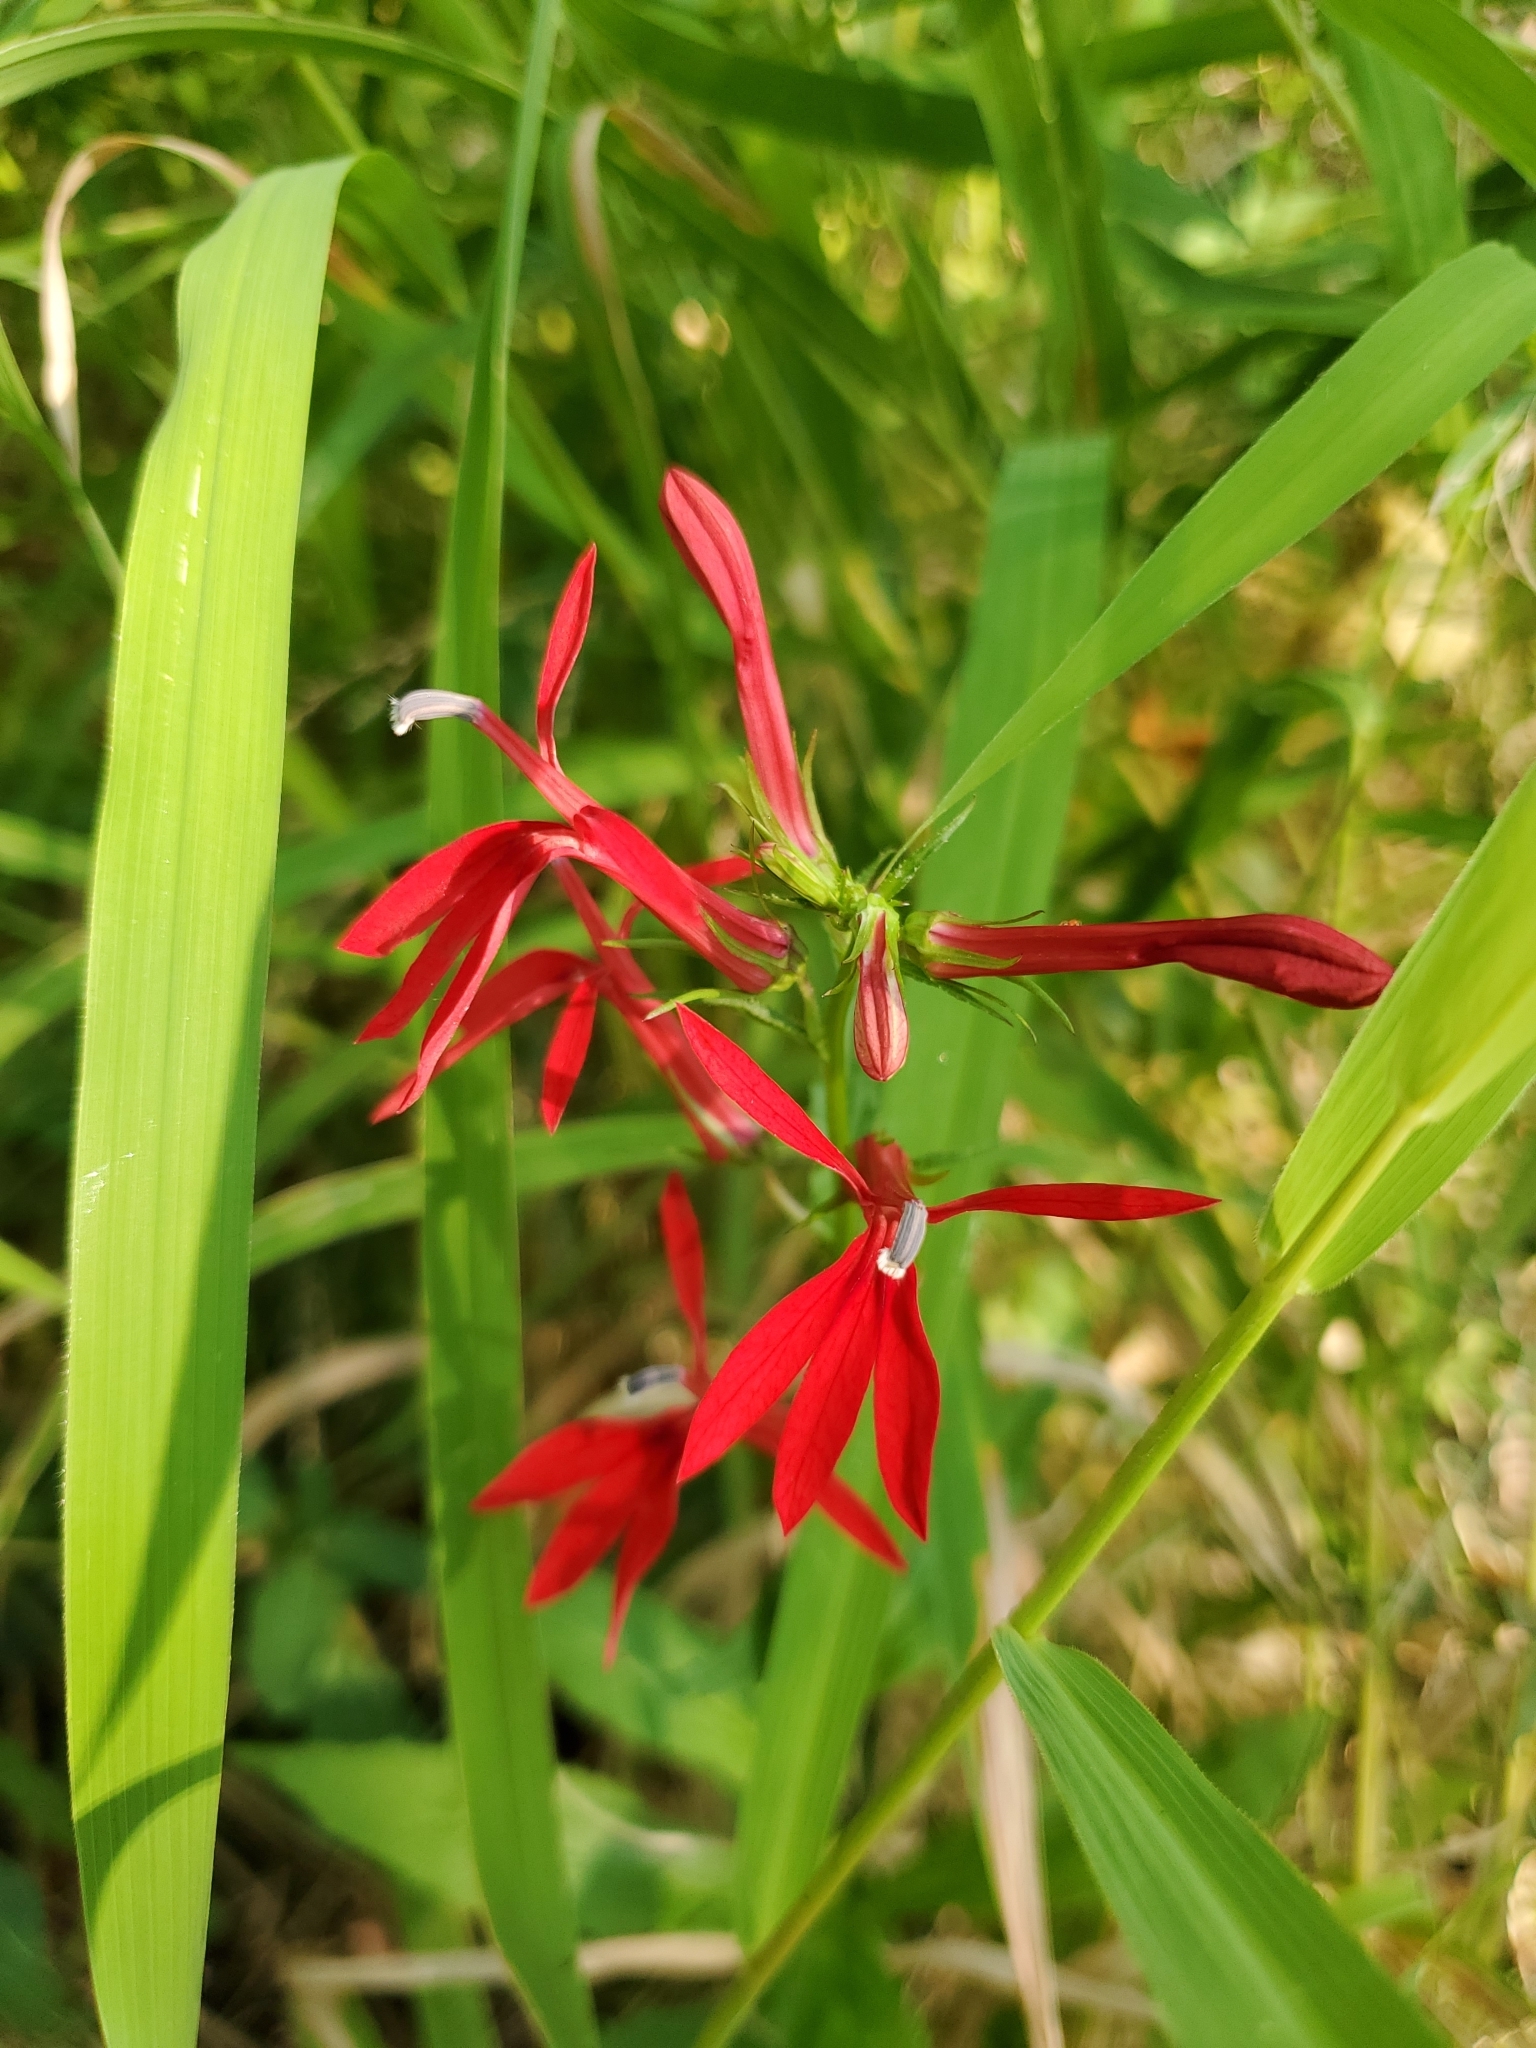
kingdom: Plantae
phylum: Tracheophyta
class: Magnoliopsida
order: Asterales
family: Campanulaceae
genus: Lobelia
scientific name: Lobelia cardinalis
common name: Cardinal flower
